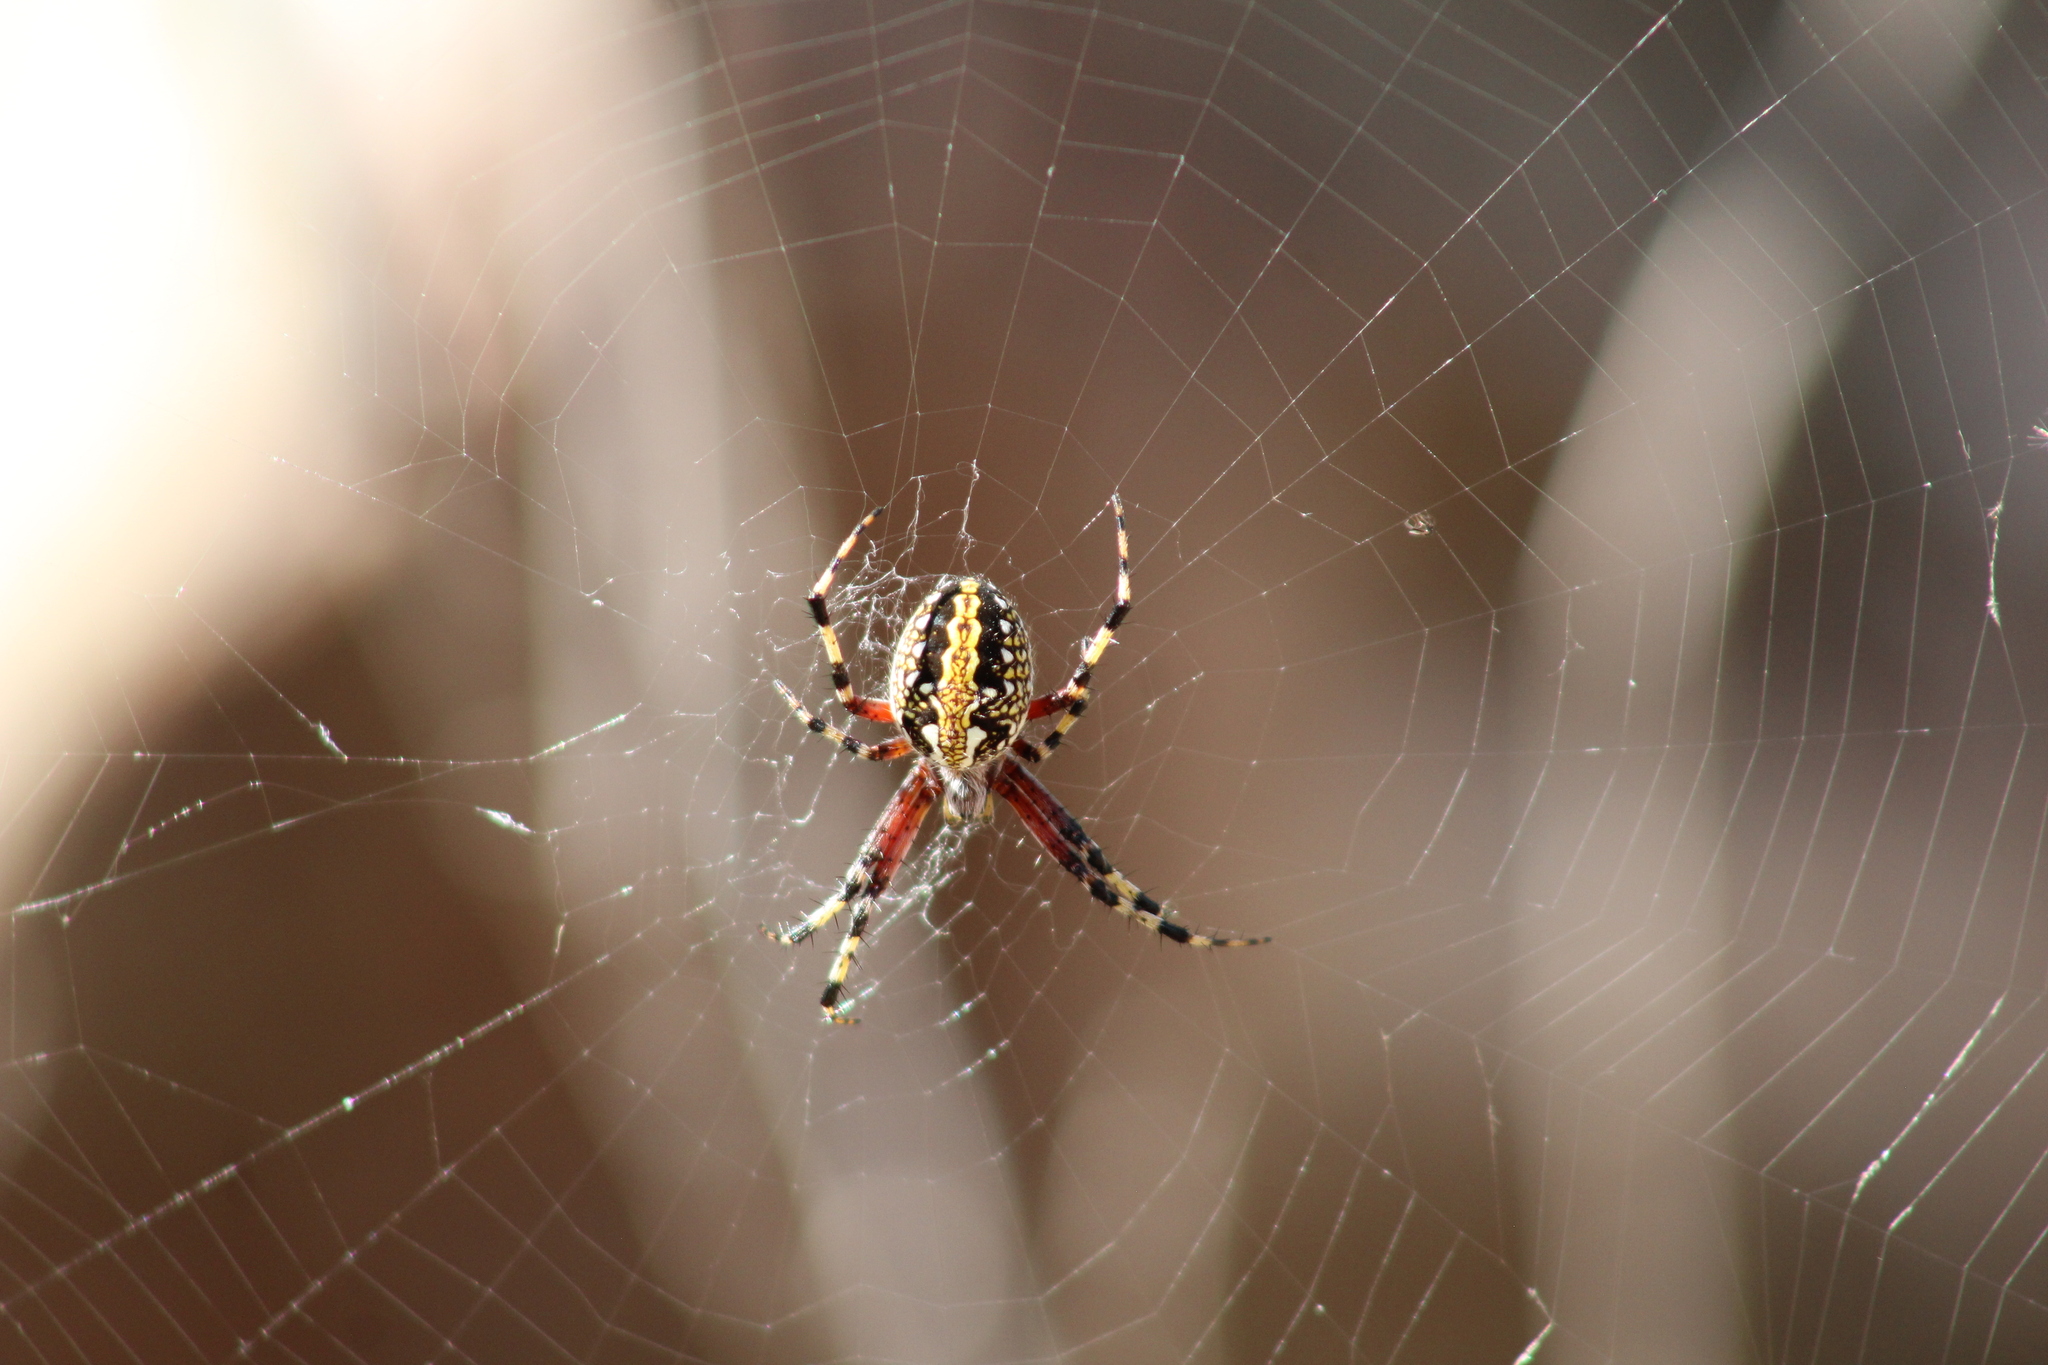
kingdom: Animalia
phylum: Arthropoda
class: Arachnida
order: Araneae
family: Araneidae
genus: Neoscona
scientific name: Neoscona oaxacensis
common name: Orb weavers
